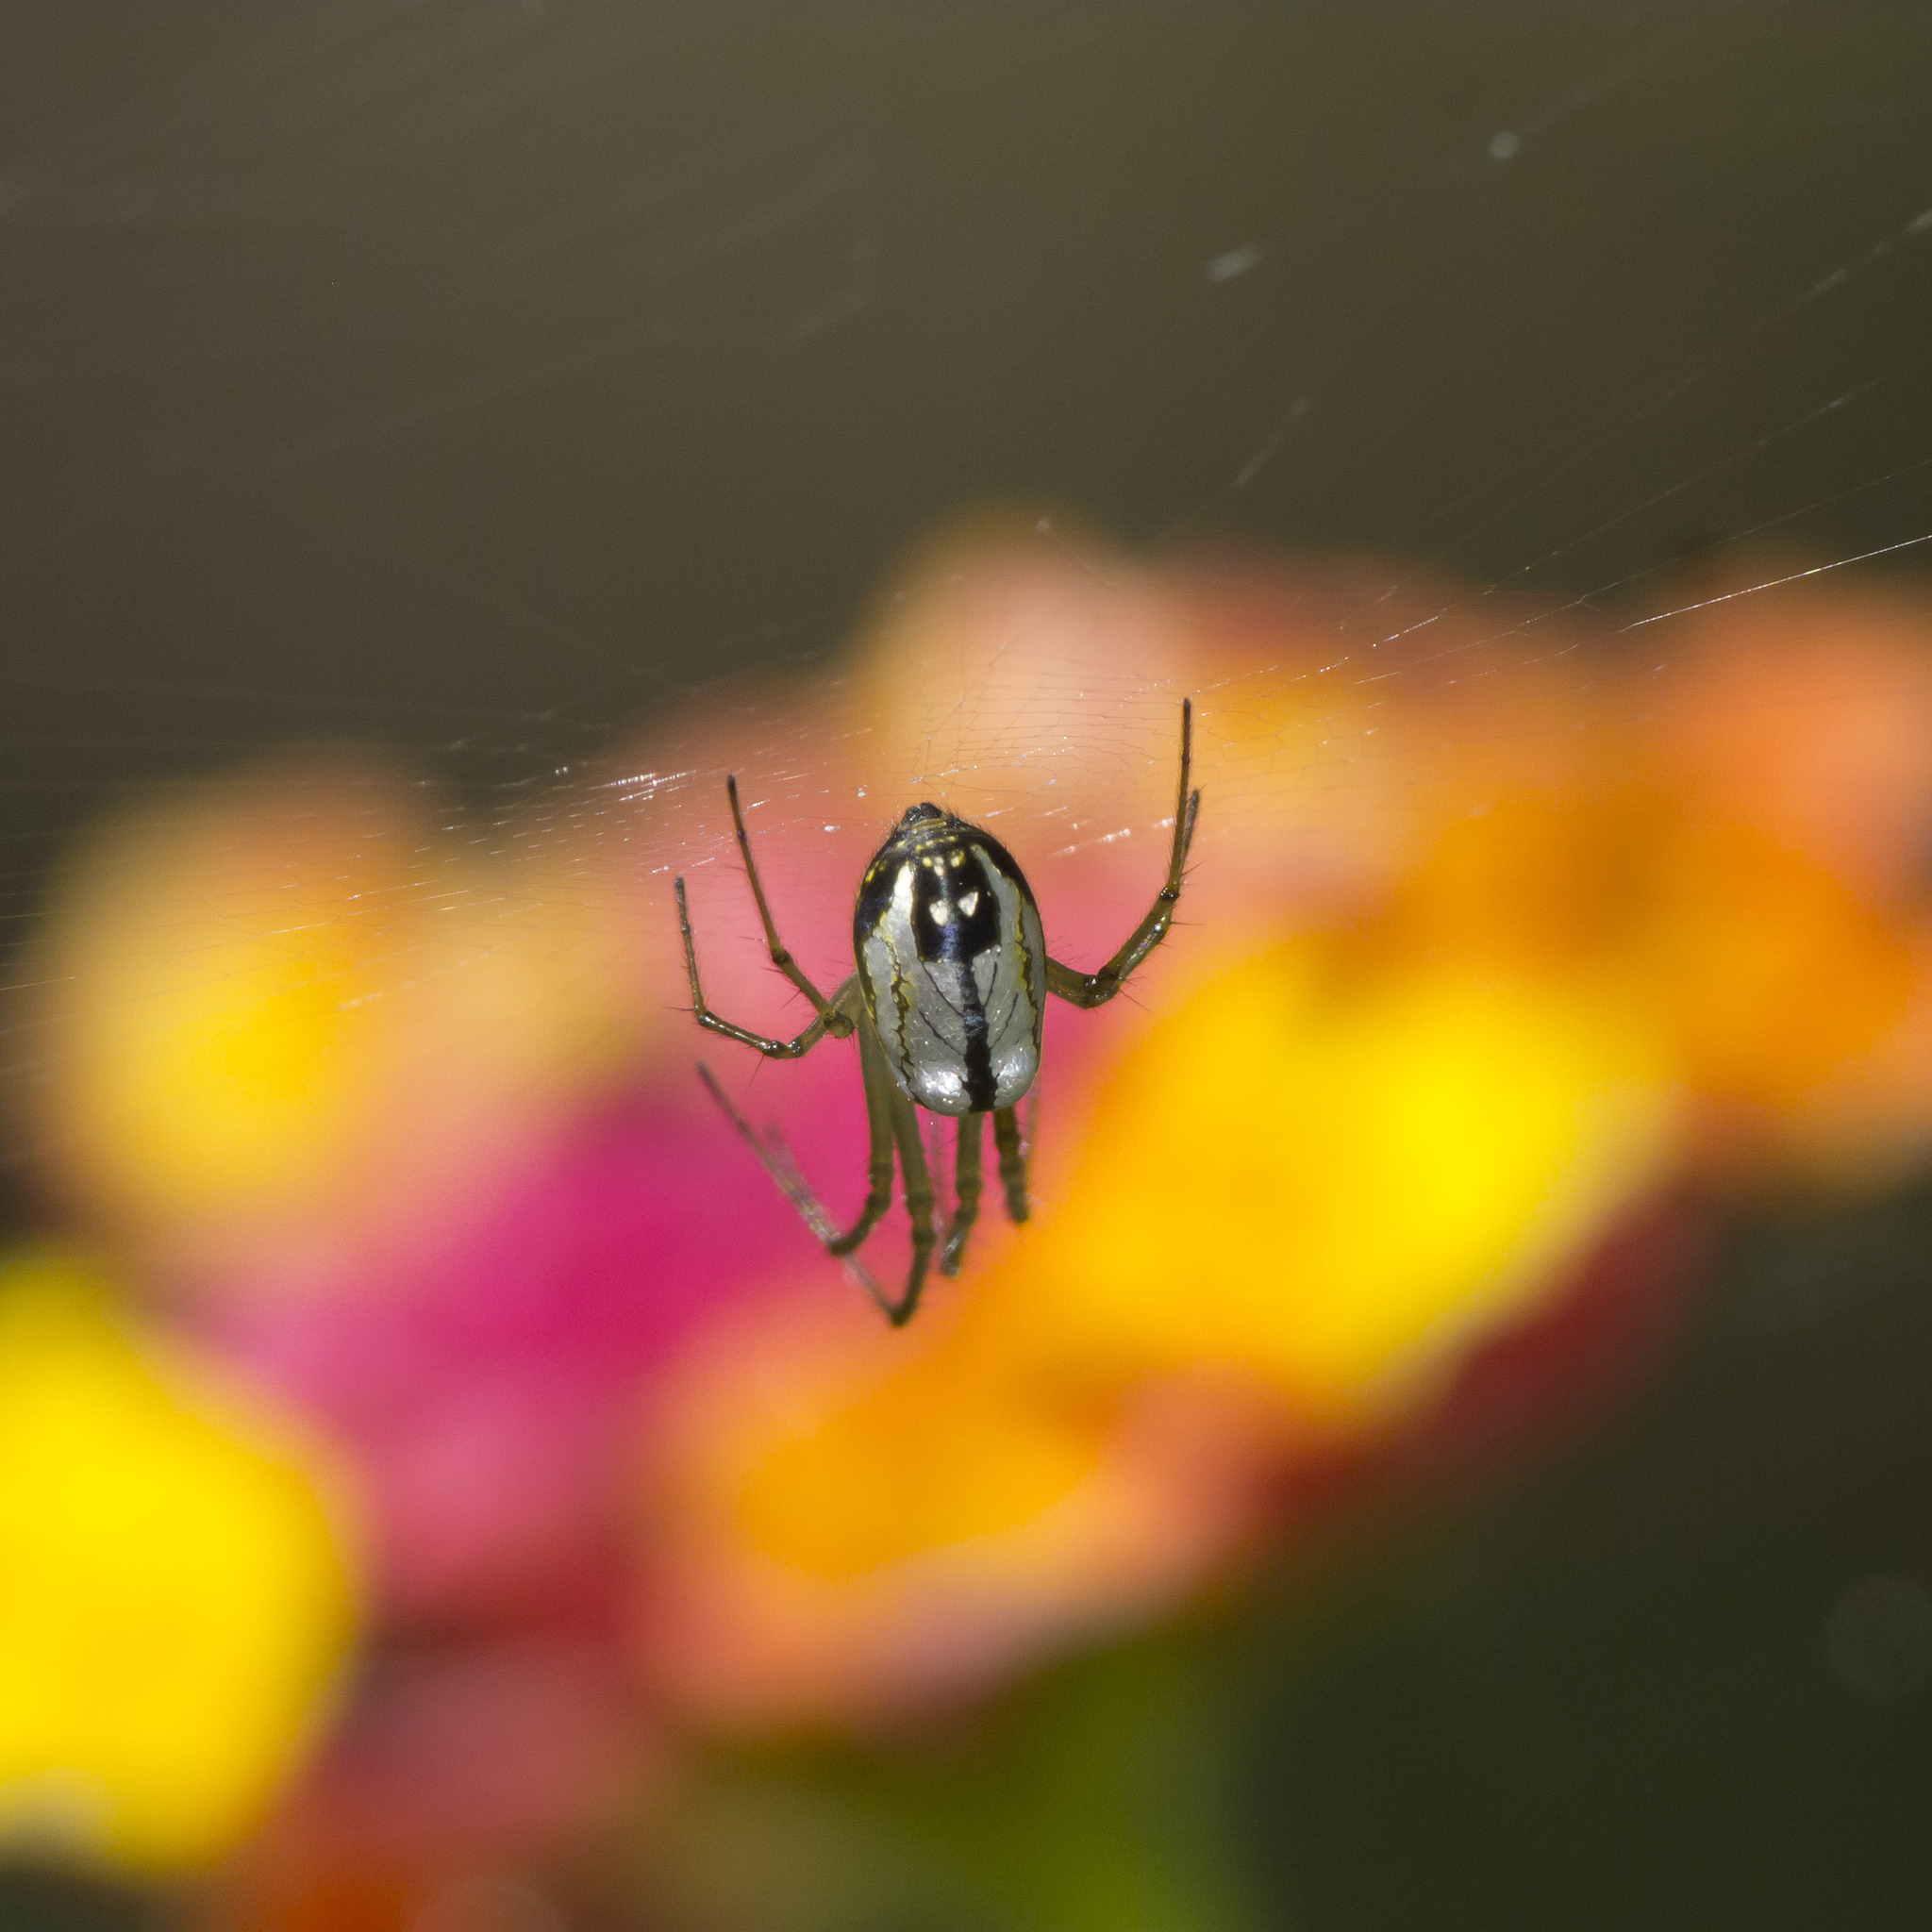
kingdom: Animalia
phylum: Arthropoda
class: Arachnida
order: Araneae
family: Tetragnathidae
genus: Leucauge
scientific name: Leucauge volupis
